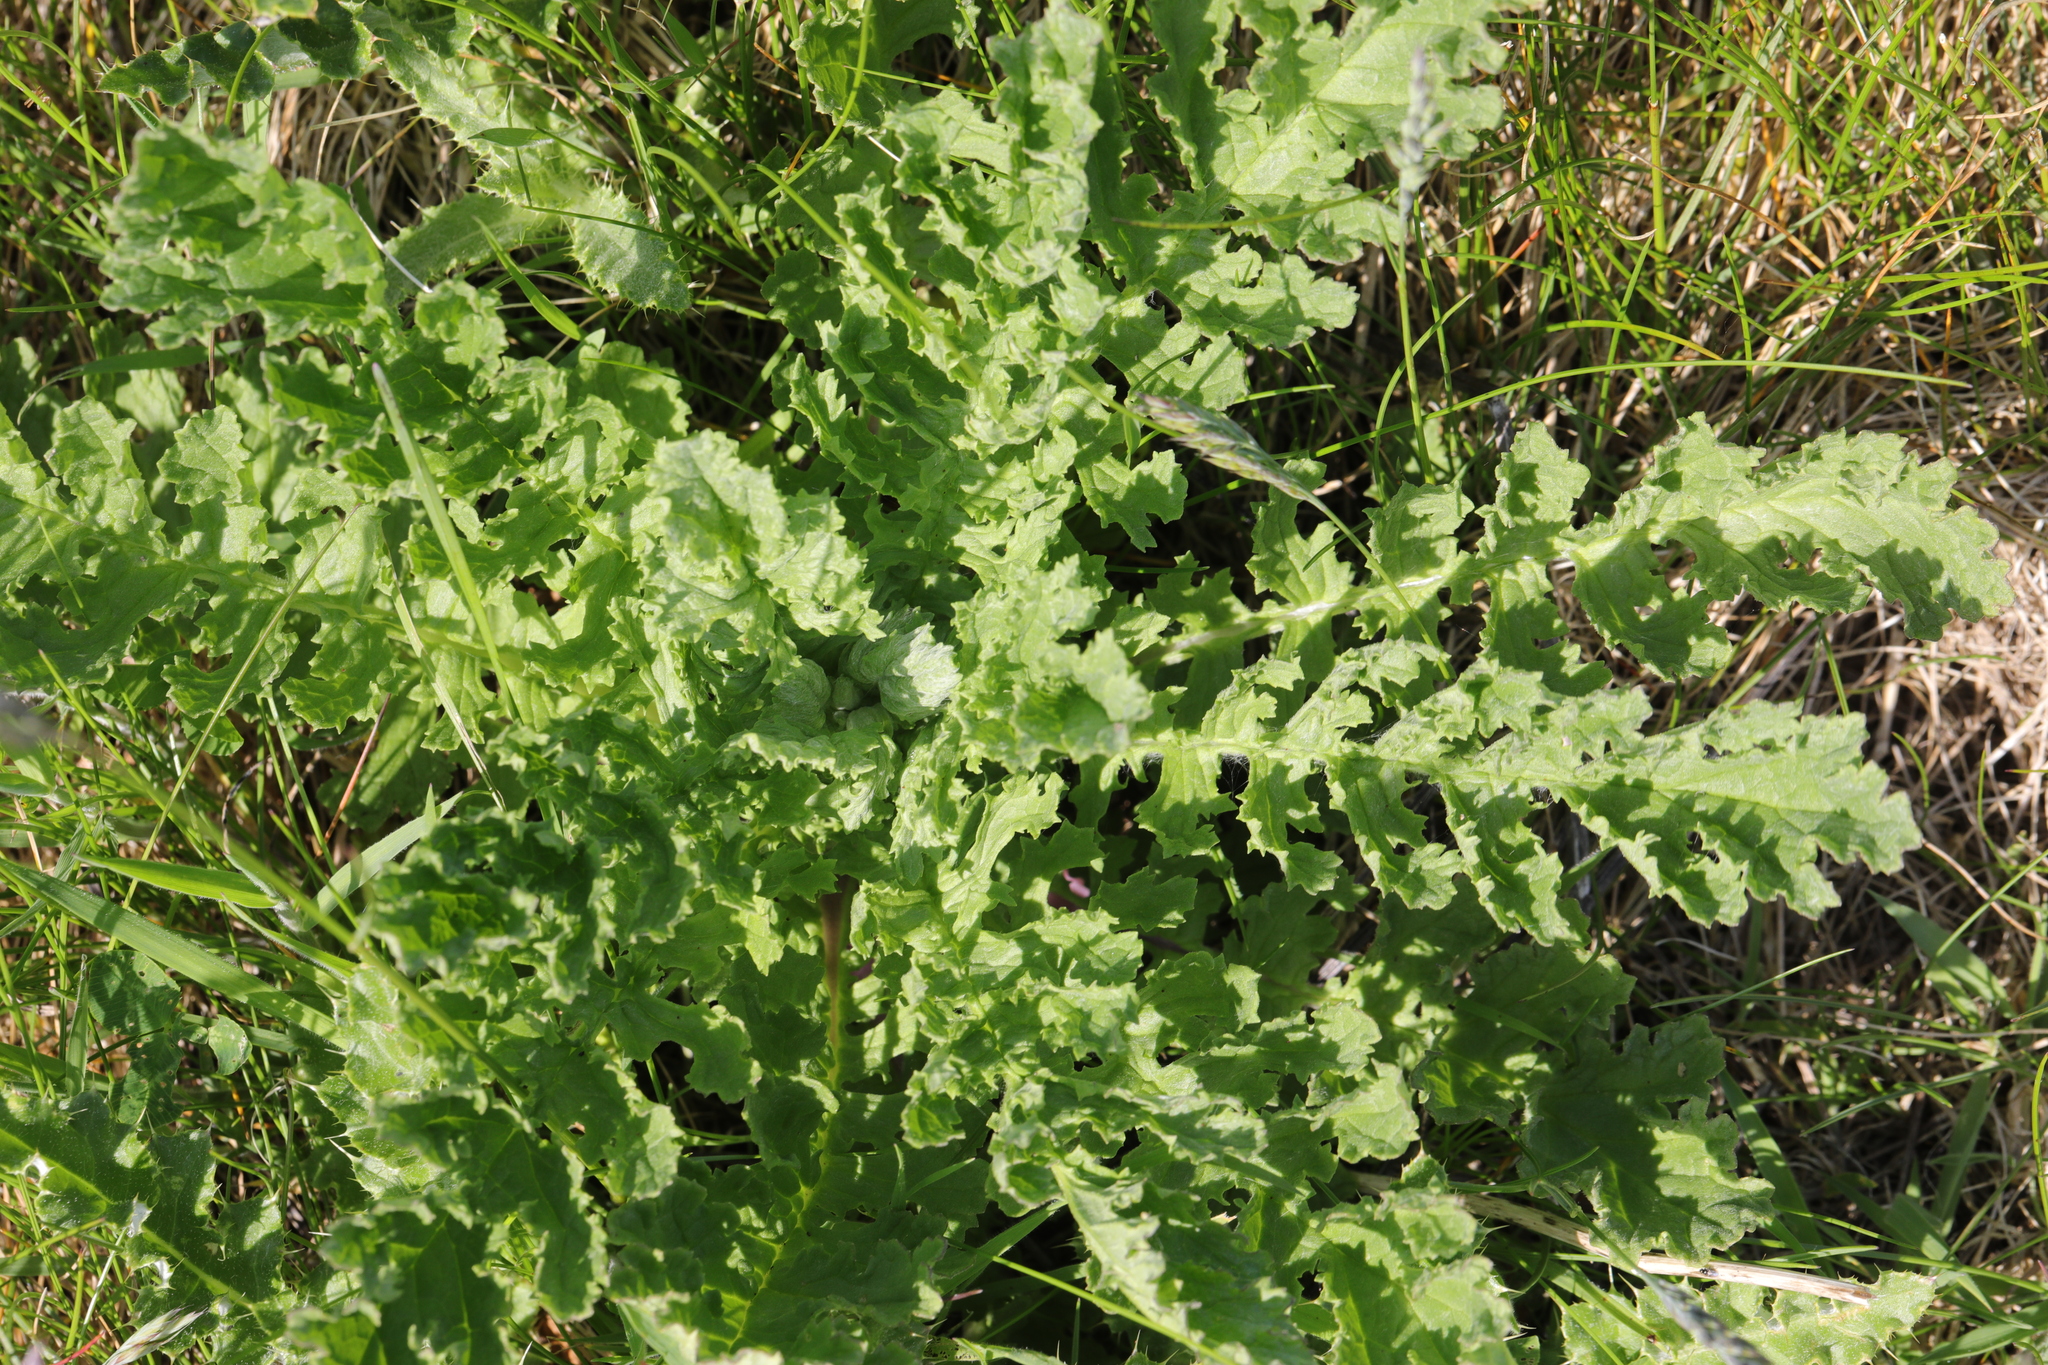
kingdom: Plantae
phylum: Tracheophyta
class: Magnoliopsida
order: Asterales
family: Asteraceae
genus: Jacobaea
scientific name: Jacobaea vulgaris
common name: Stinking willie
